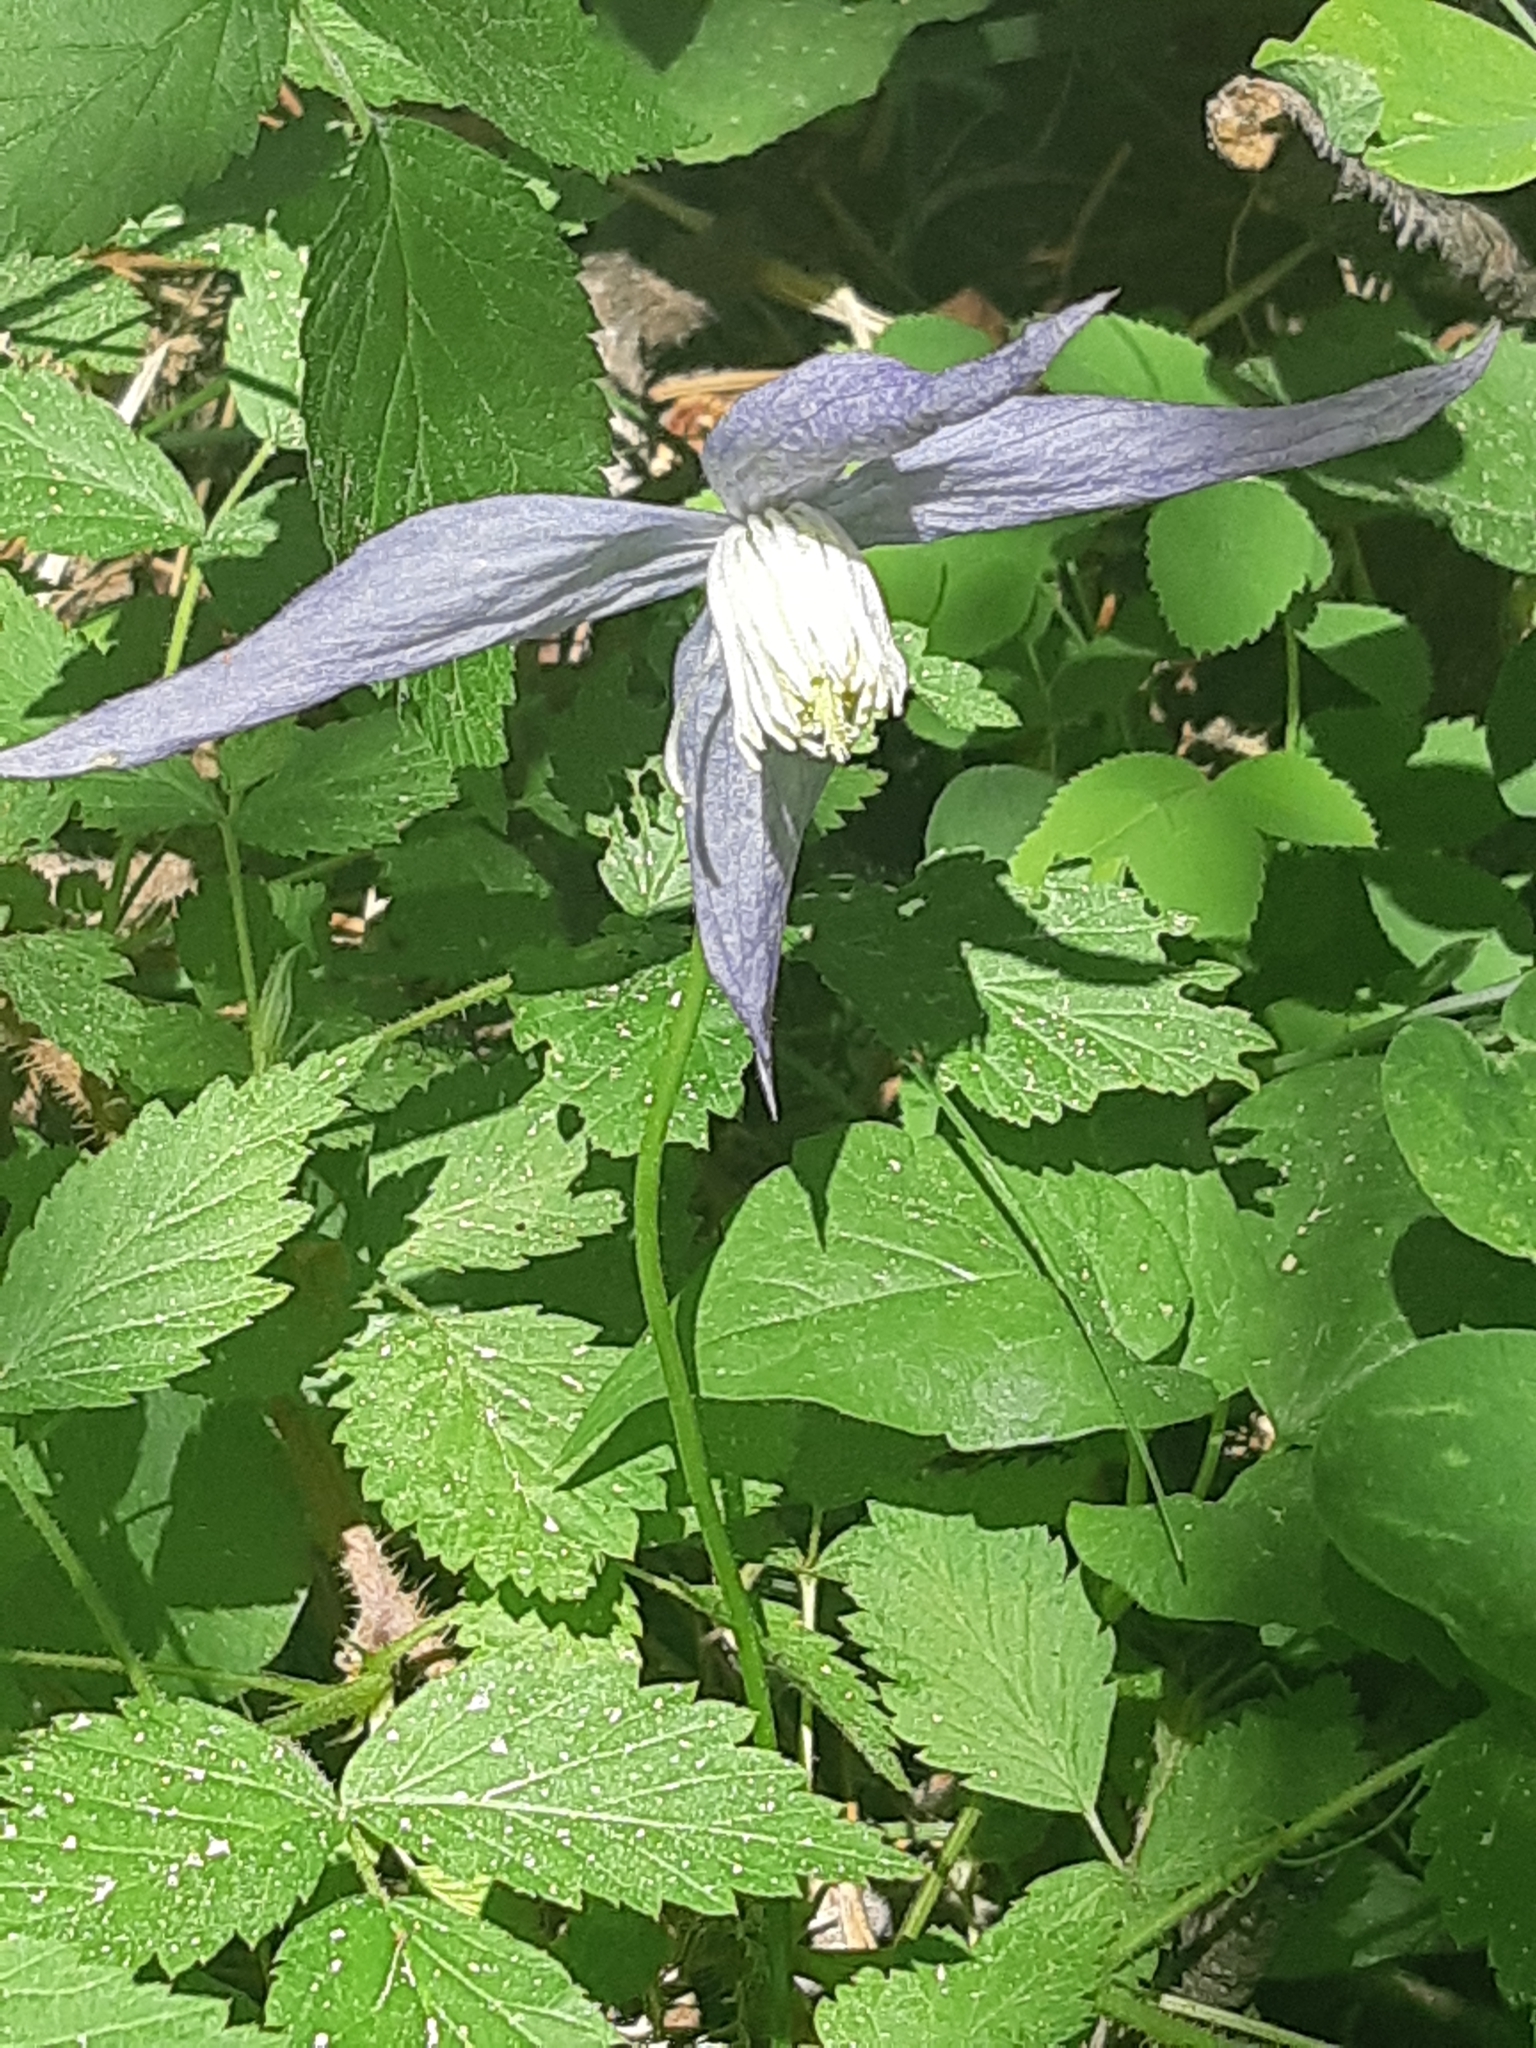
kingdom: Plantae
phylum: Tracheophyta
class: Magnoliopsida
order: Ranunculales
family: Ranunculaceae
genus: Clematis
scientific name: Clematis occidentalis
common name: Purple clematis
